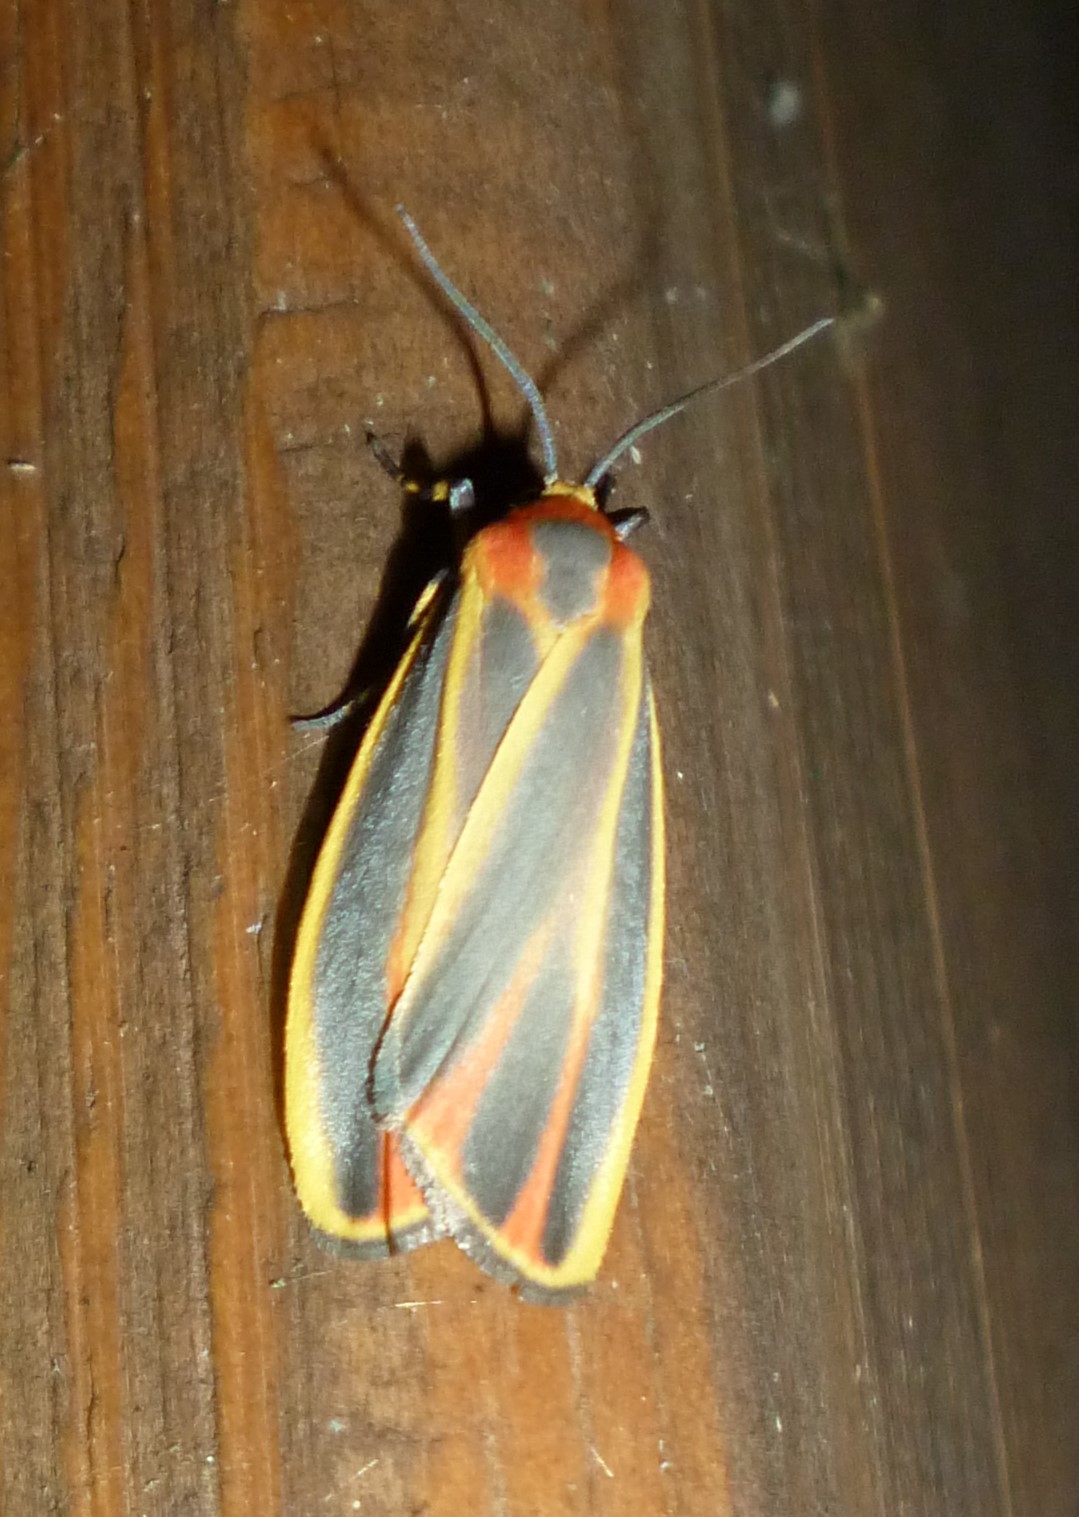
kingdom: Animalia
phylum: Arthropoda
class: Insecta
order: Lepidoptera
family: Erebidae
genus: Hypoprepia
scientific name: Hypoprepia fucosa
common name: Painted lichen moth
